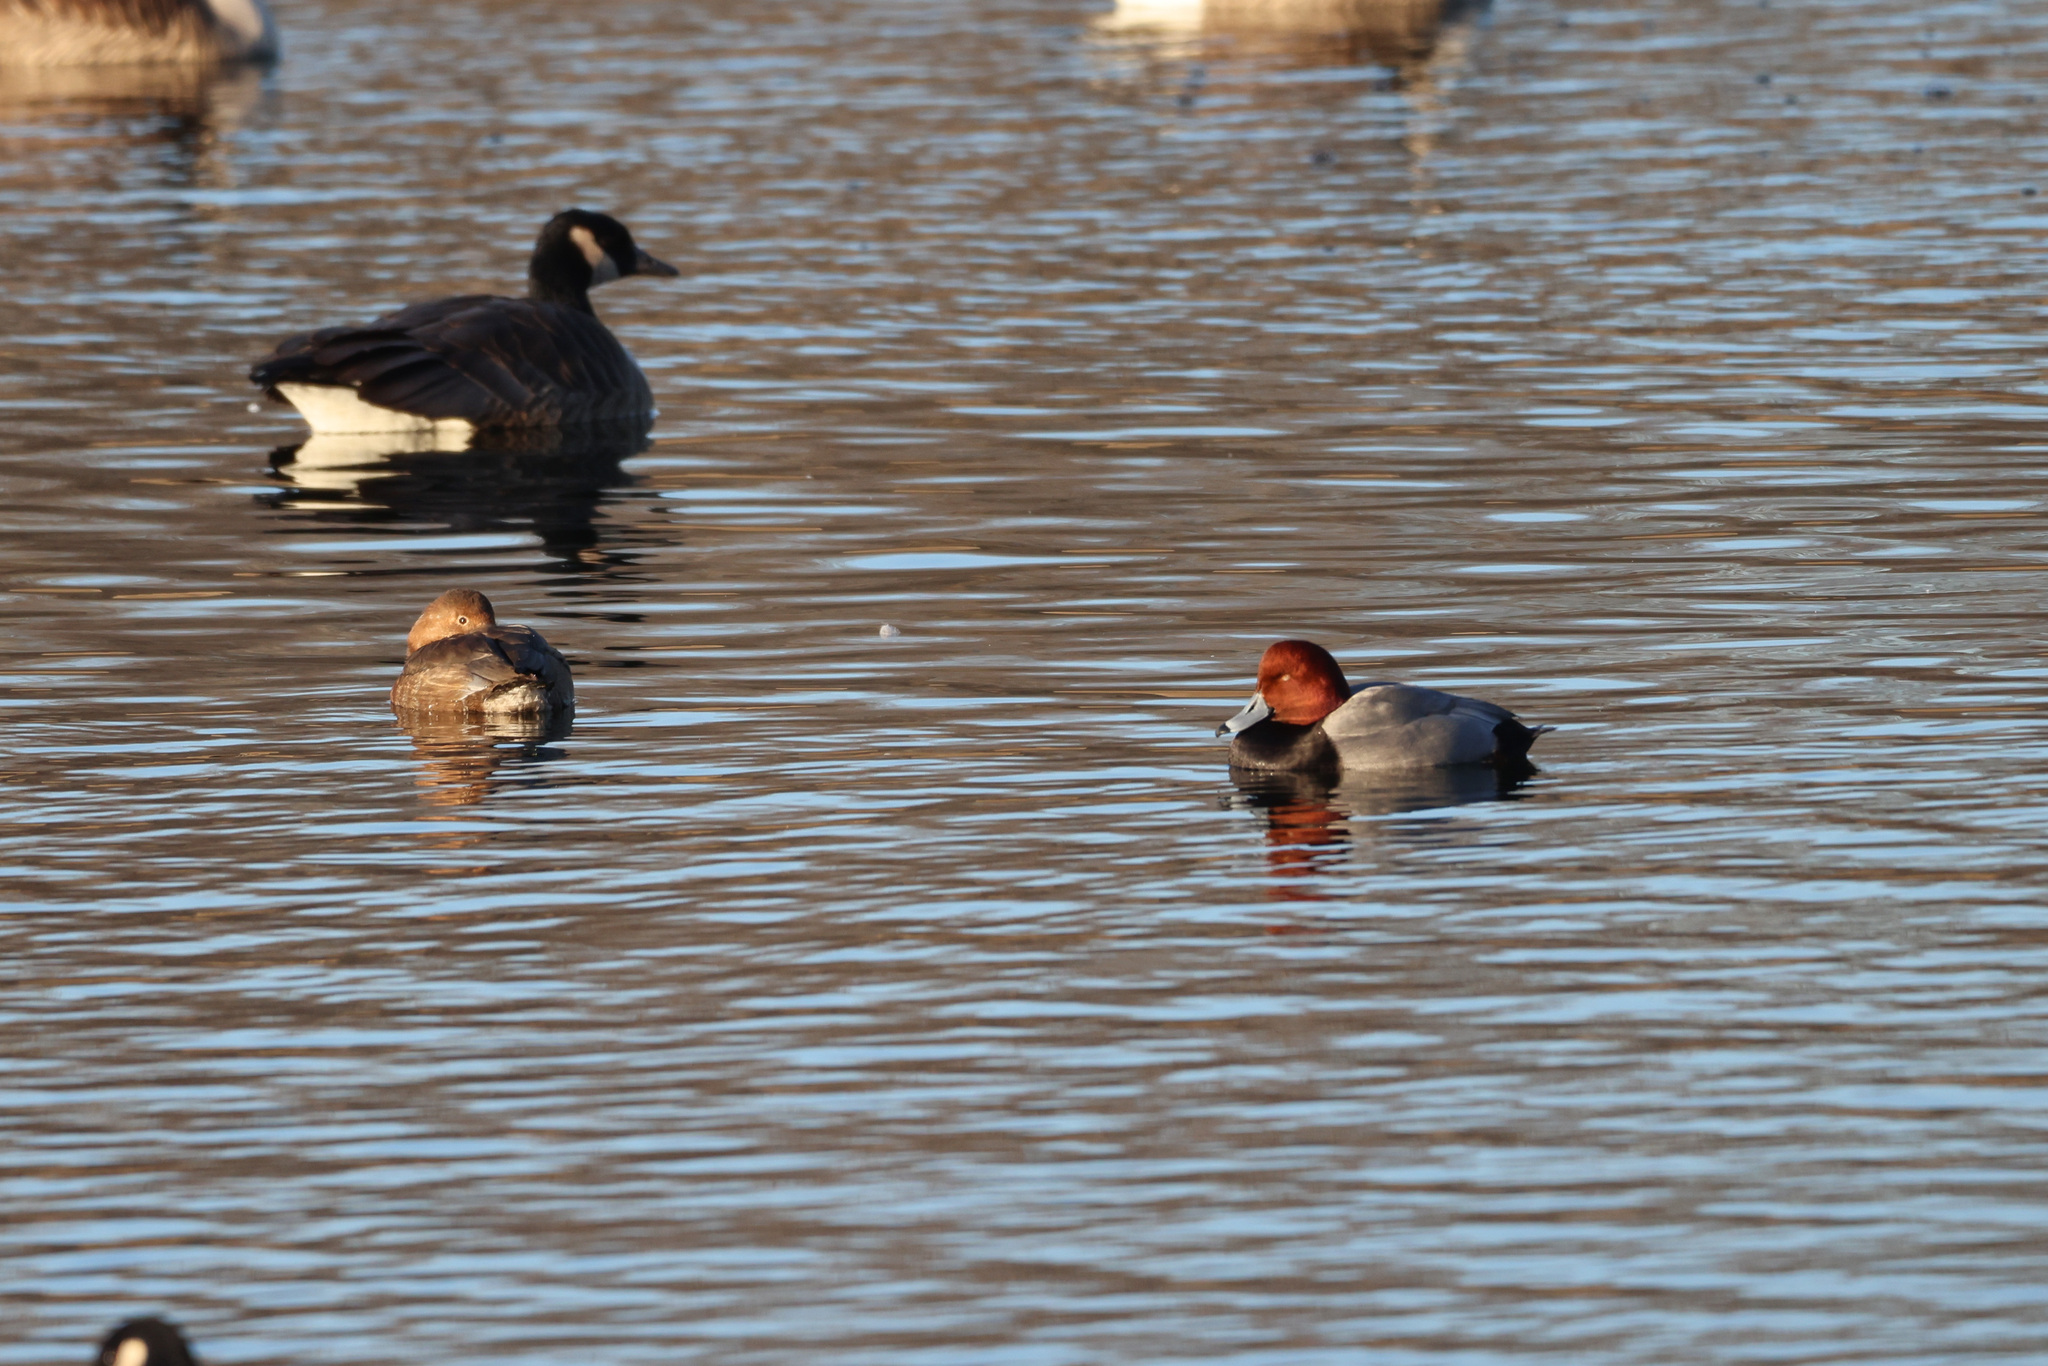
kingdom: Animalia
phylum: Chordata
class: Aves
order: Anseriformes
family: Anatidae
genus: Aythya
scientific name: Aythya americana
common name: Redhead
